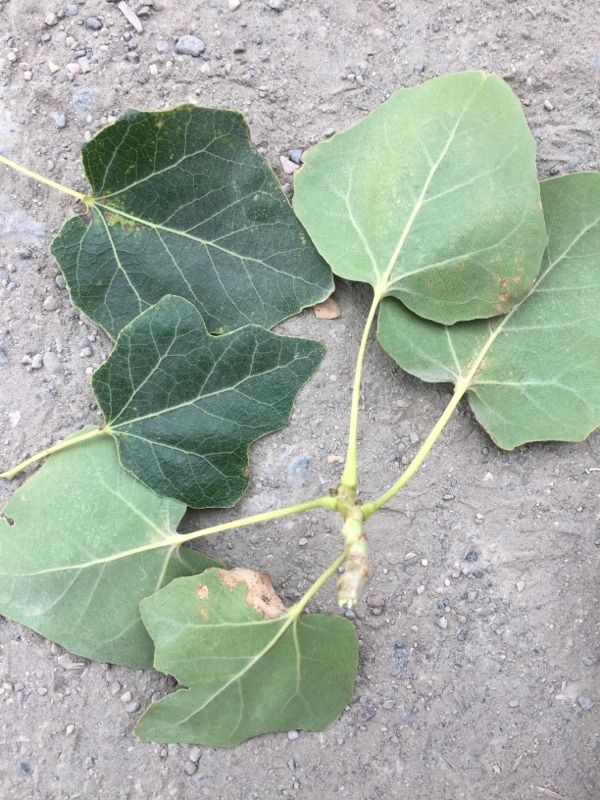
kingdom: Plantae
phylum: Tracheophyta
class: Magnoliopsida
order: Malpighiales
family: Salicaceae
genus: Populus
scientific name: Populus alba
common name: White poplar
